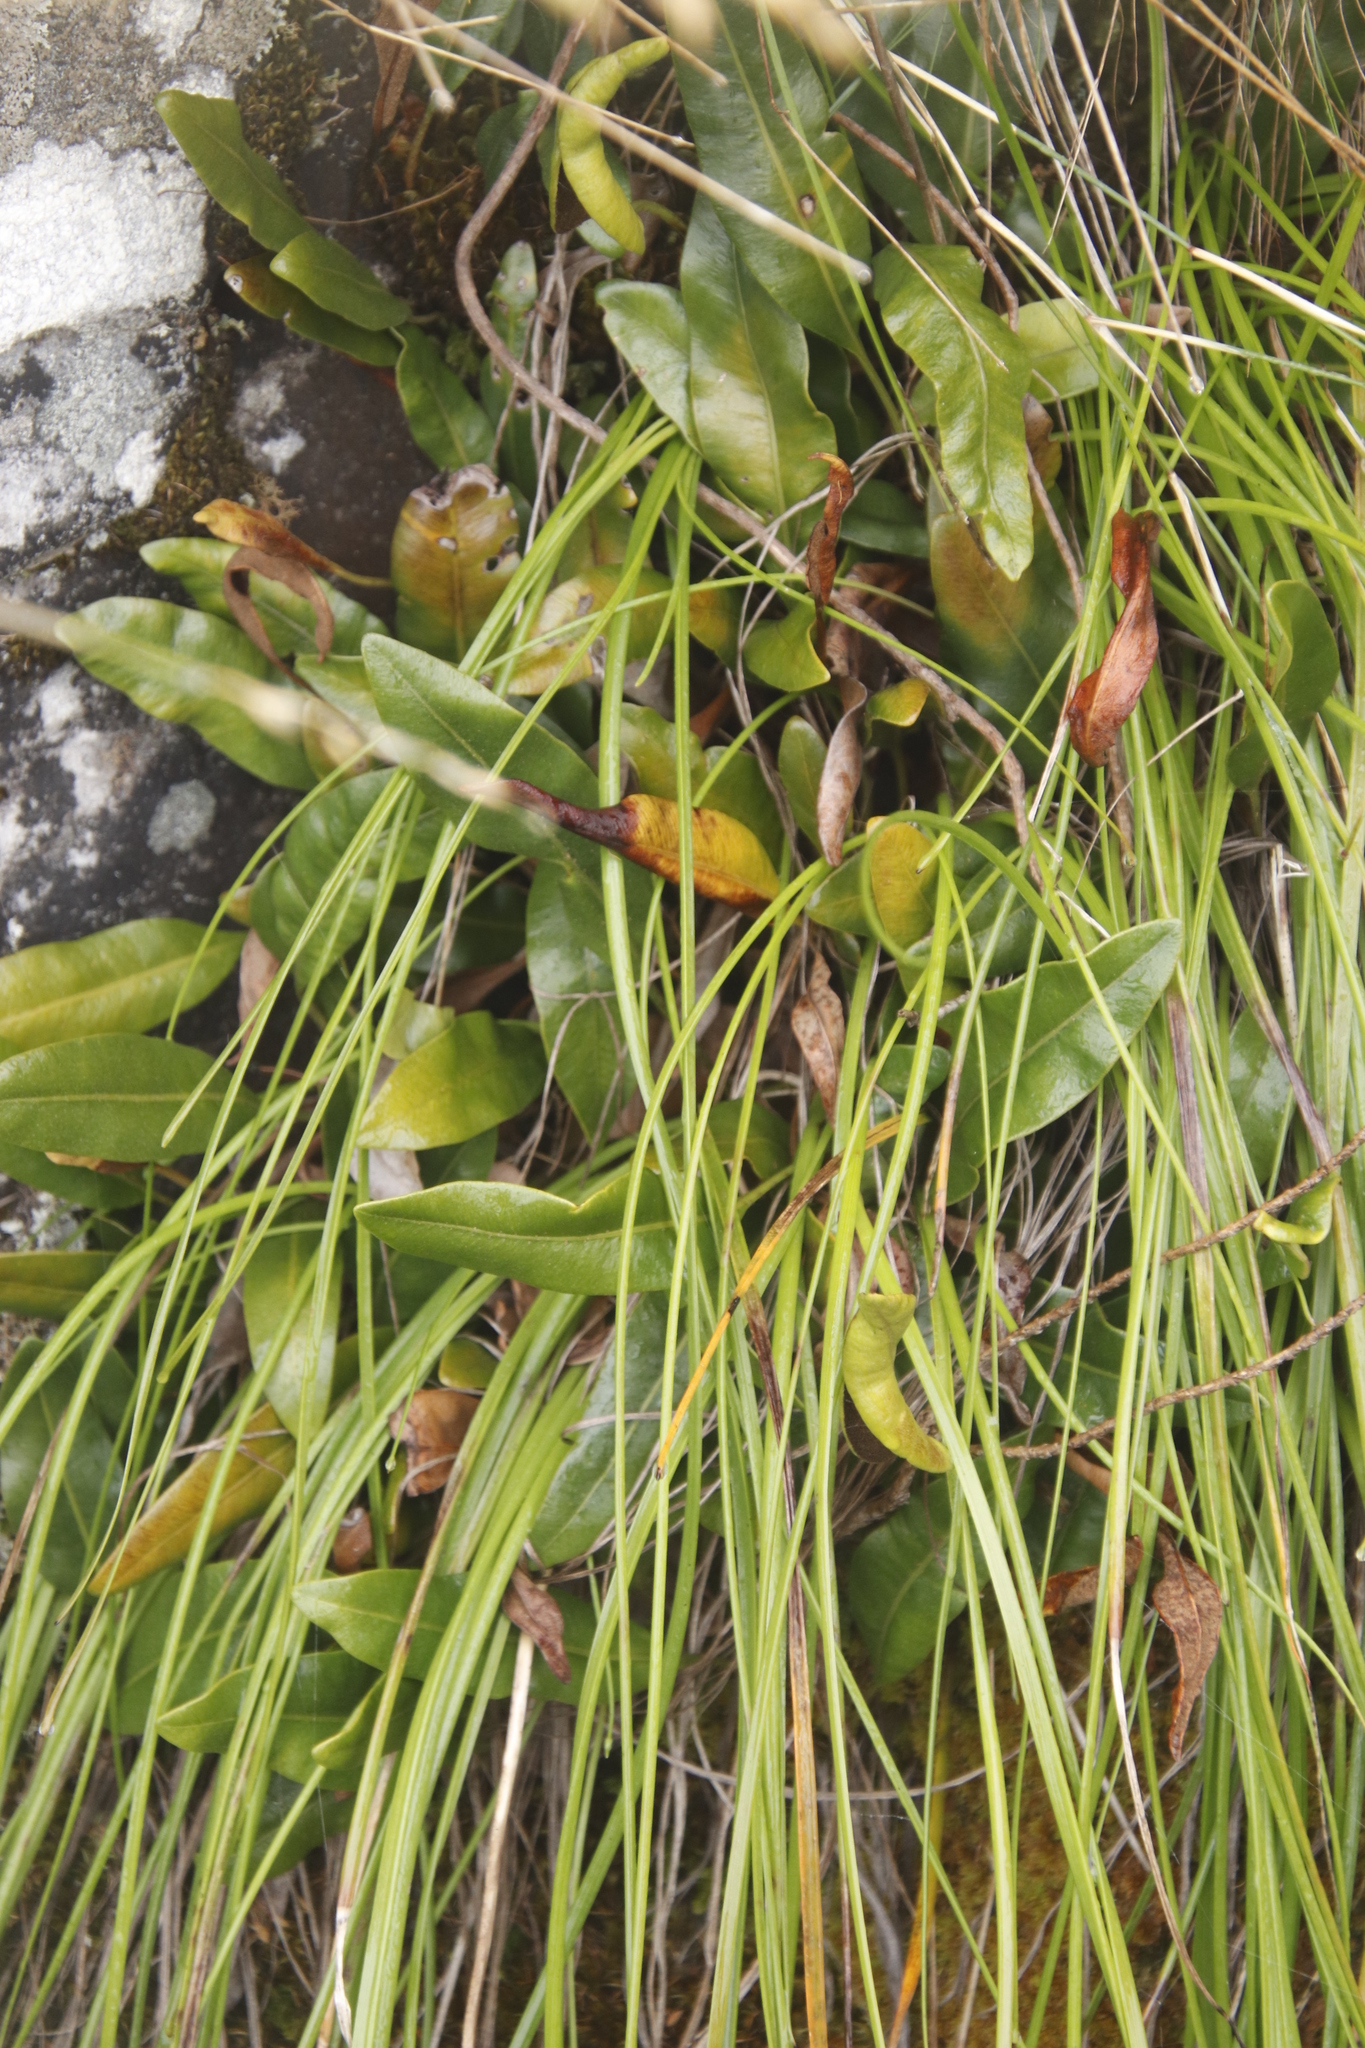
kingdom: Plantae
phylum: Tracheophyta
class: Liliopsida
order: Asparagales
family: Asphodelaceae
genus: Trachyandra
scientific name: Trachyandra tabularis
